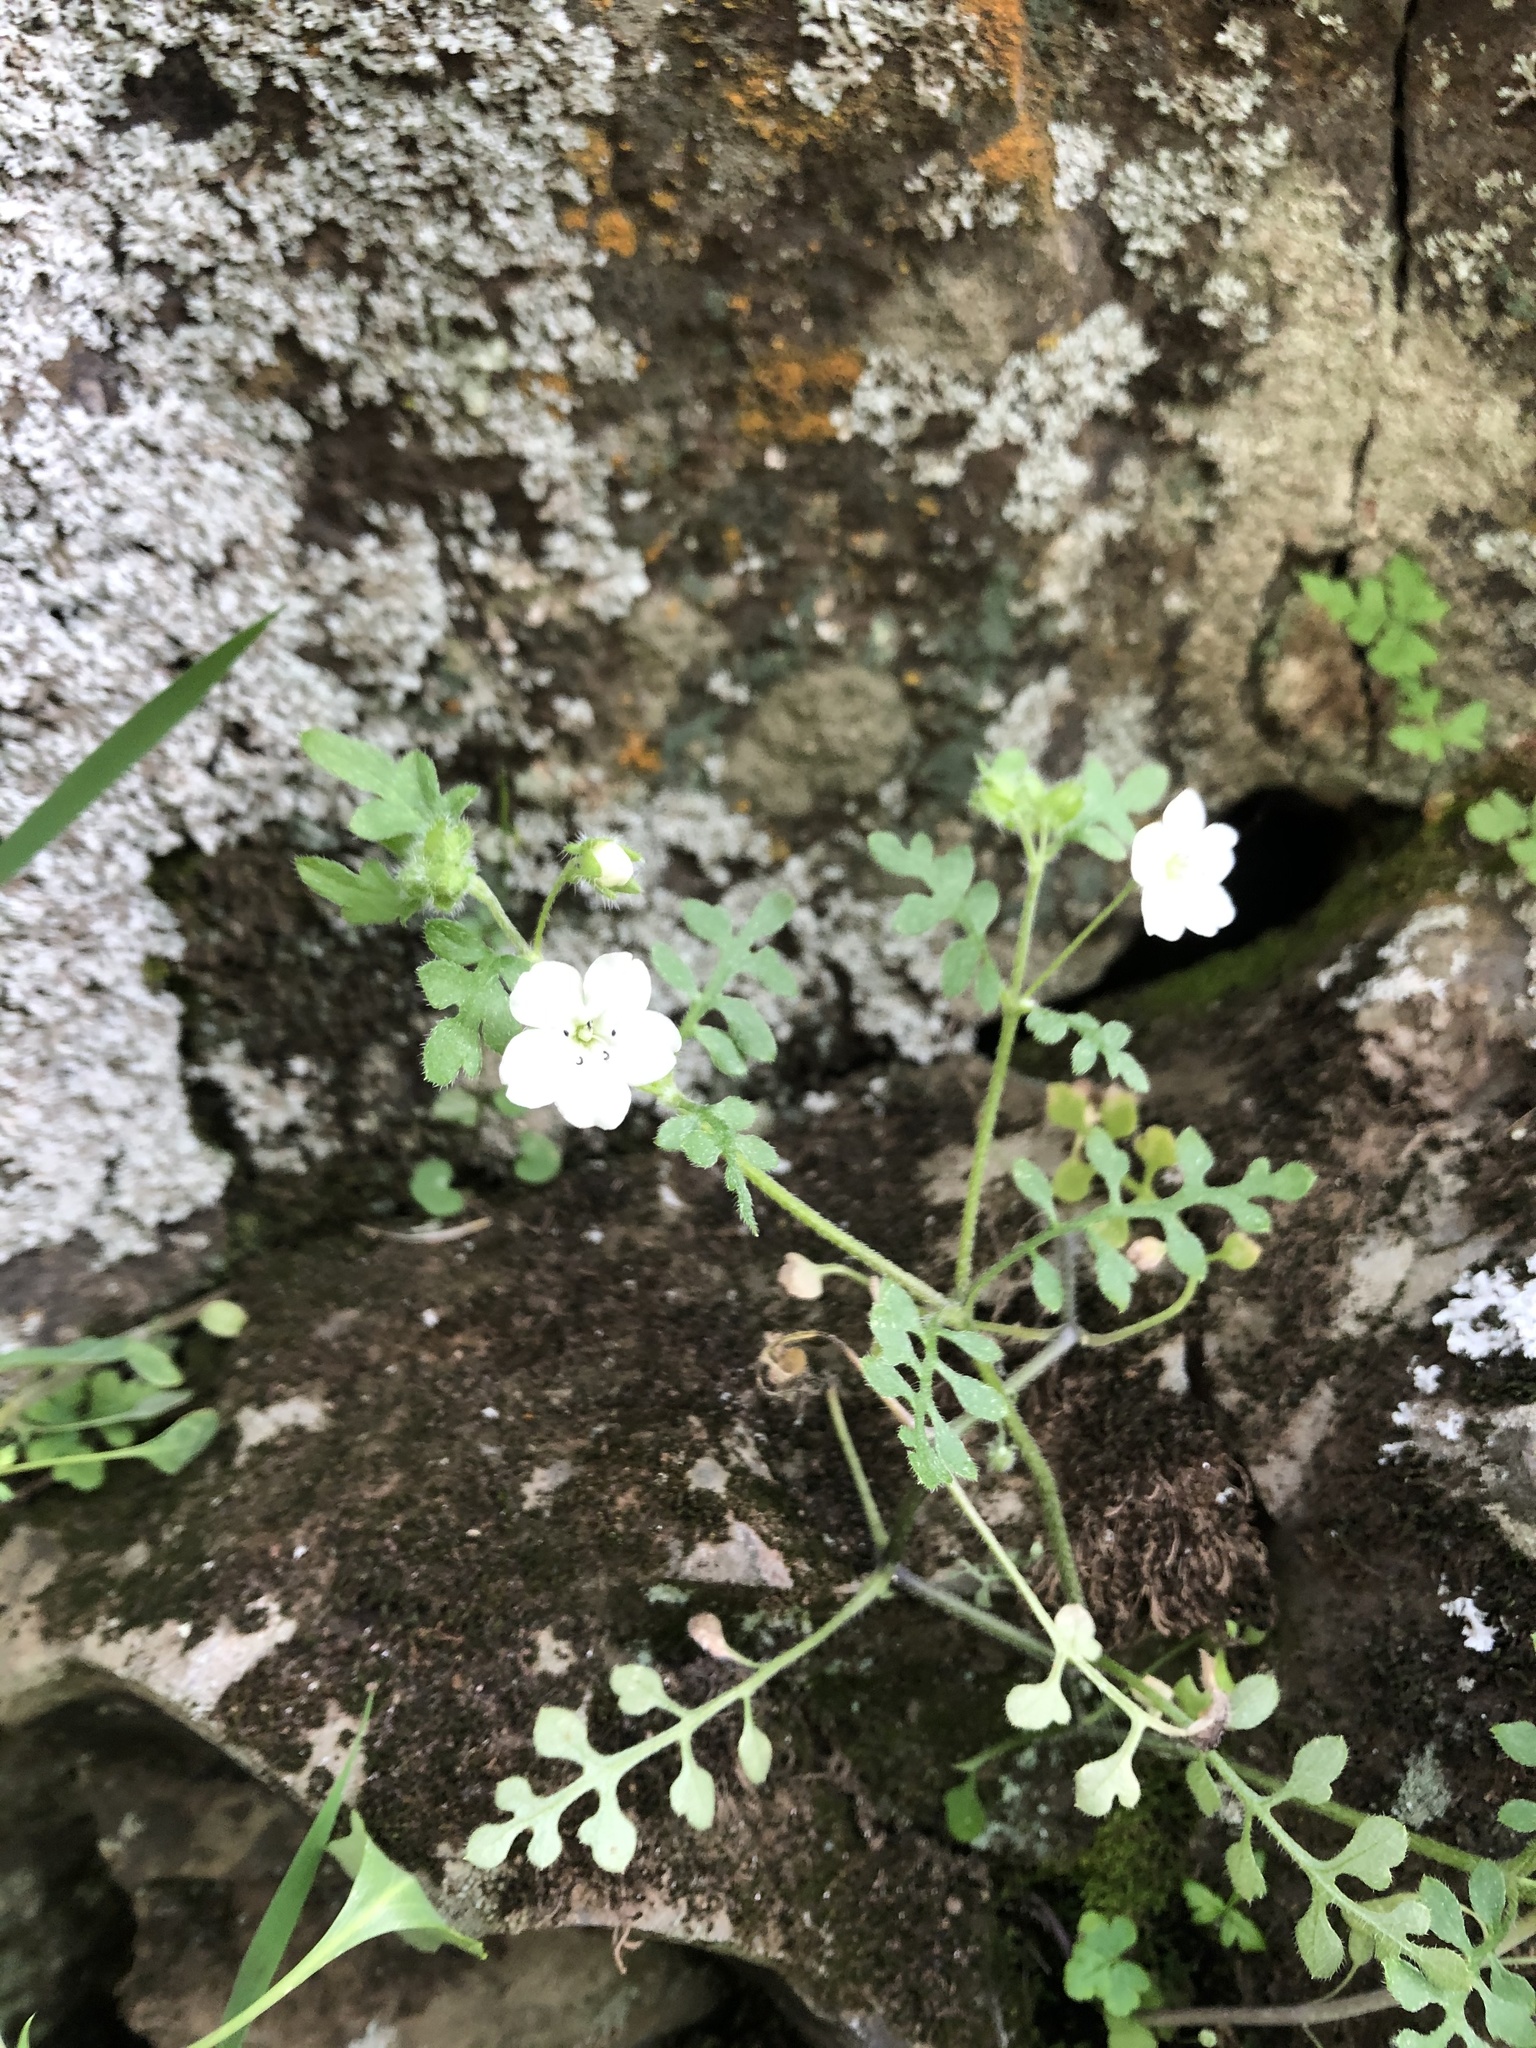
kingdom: Plantae
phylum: Tracheophyta
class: Magnoliopsida
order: Boraginales
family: Hydrophyllaceae
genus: Nemophila
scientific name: Nemophila heterophylla
